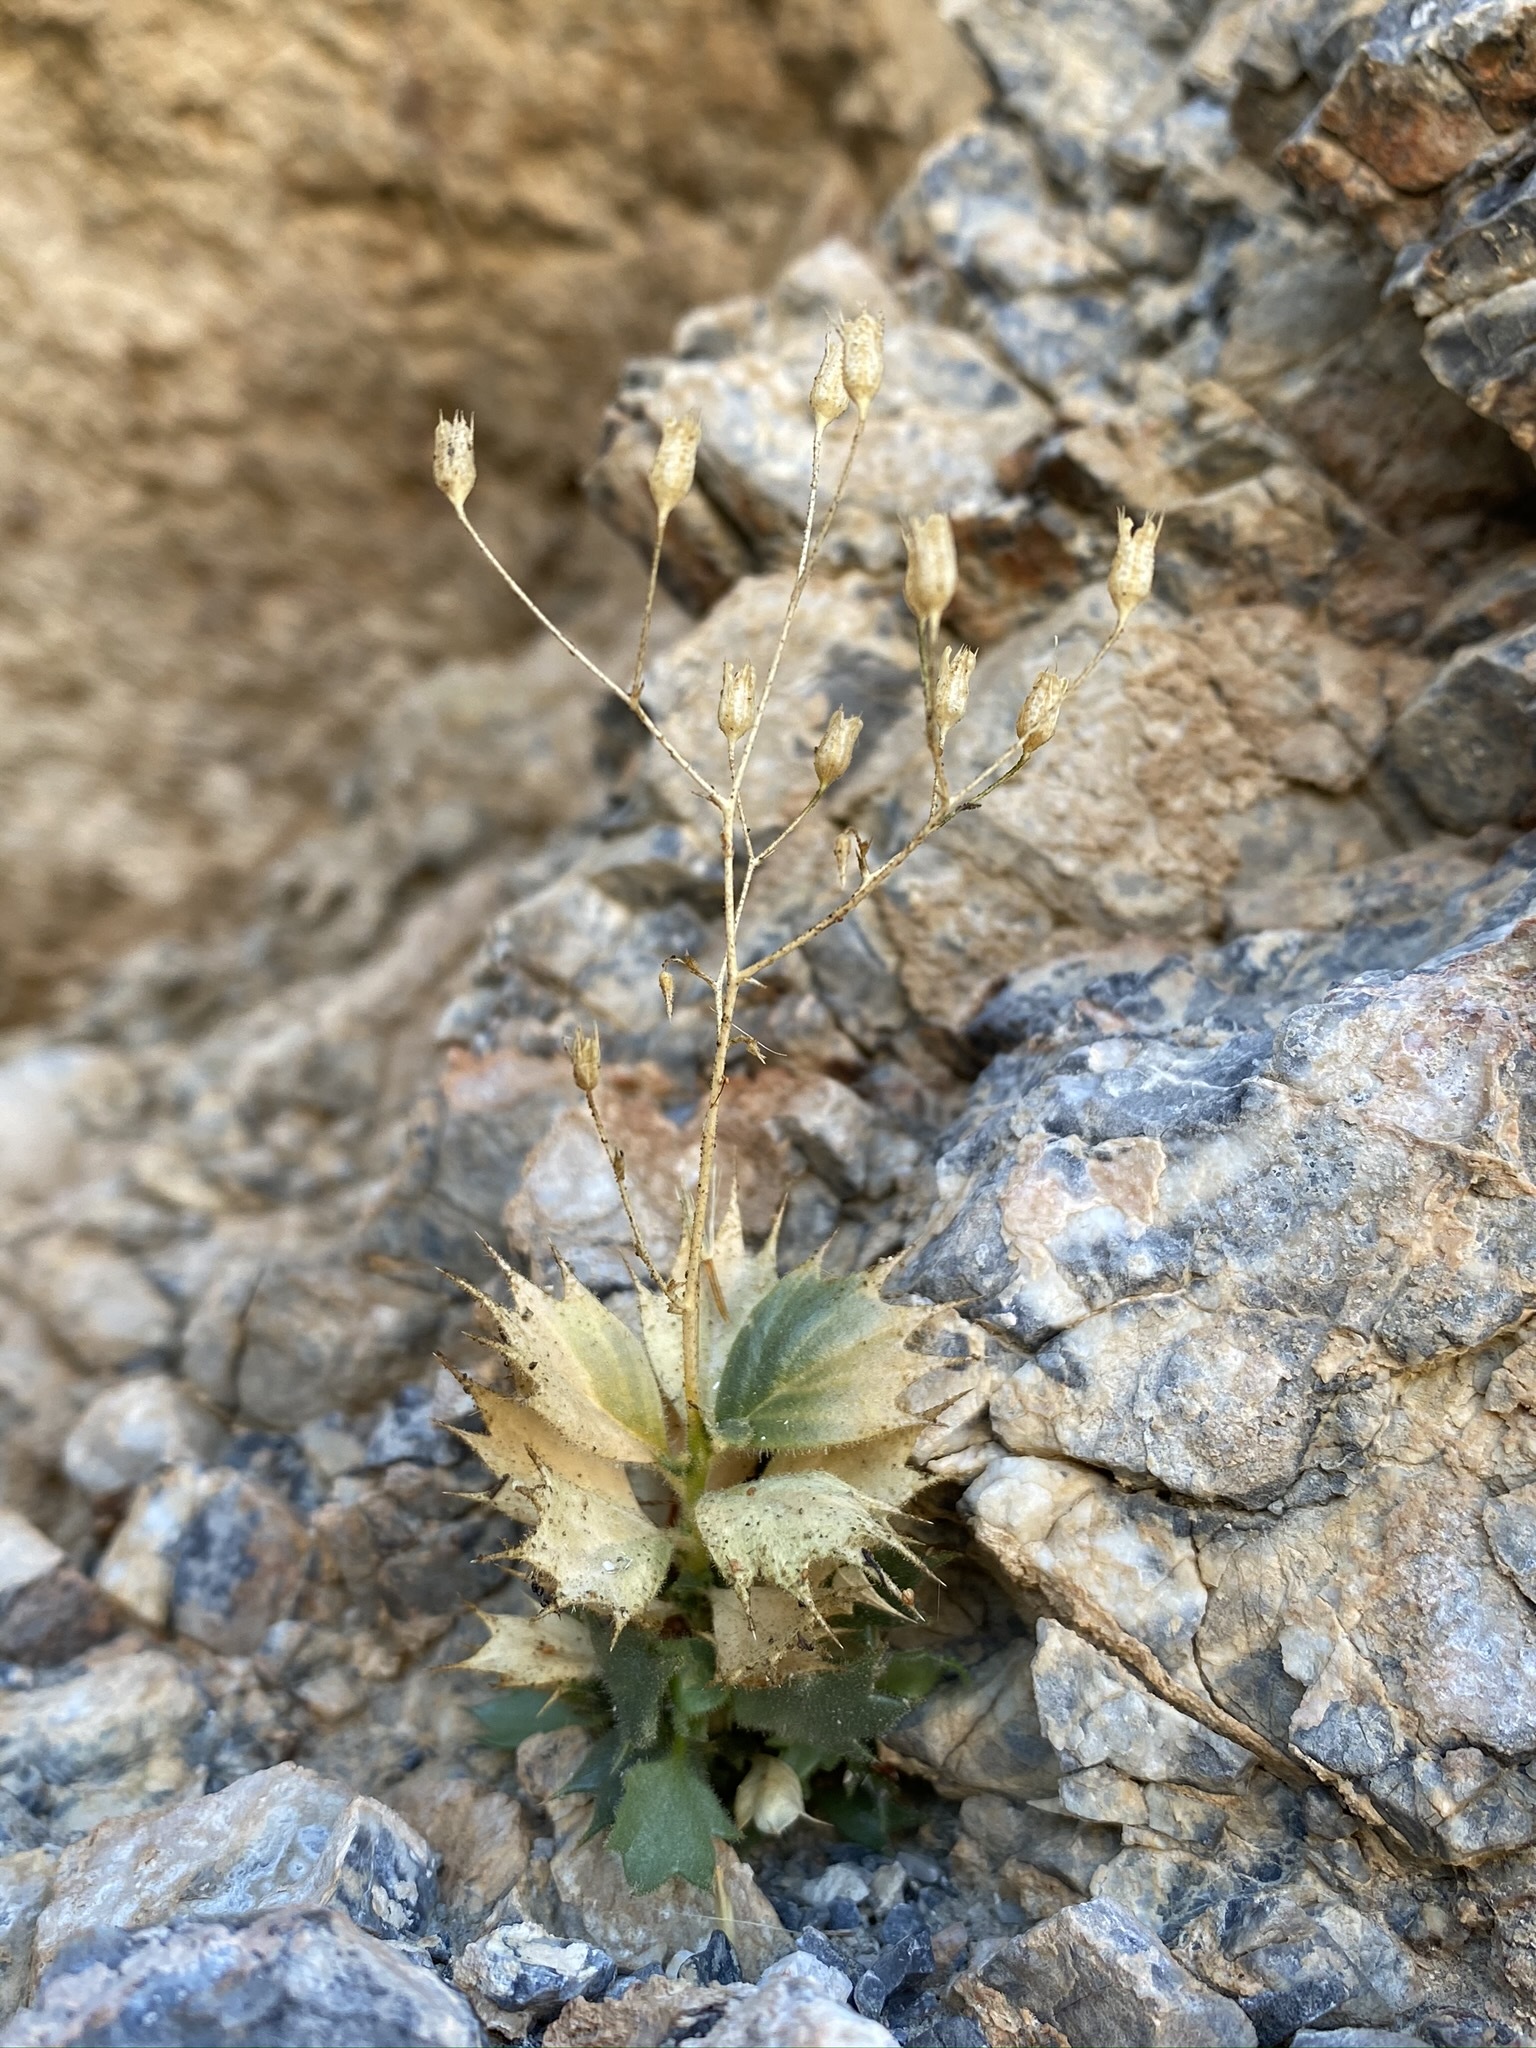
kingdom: Plantae
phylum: Tracheophyta
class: Magnoliopsida
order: Ericales
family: Polemoniaceae
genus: Aliciella
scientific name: Aliciella ripleyi
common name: Ripley's gilia
